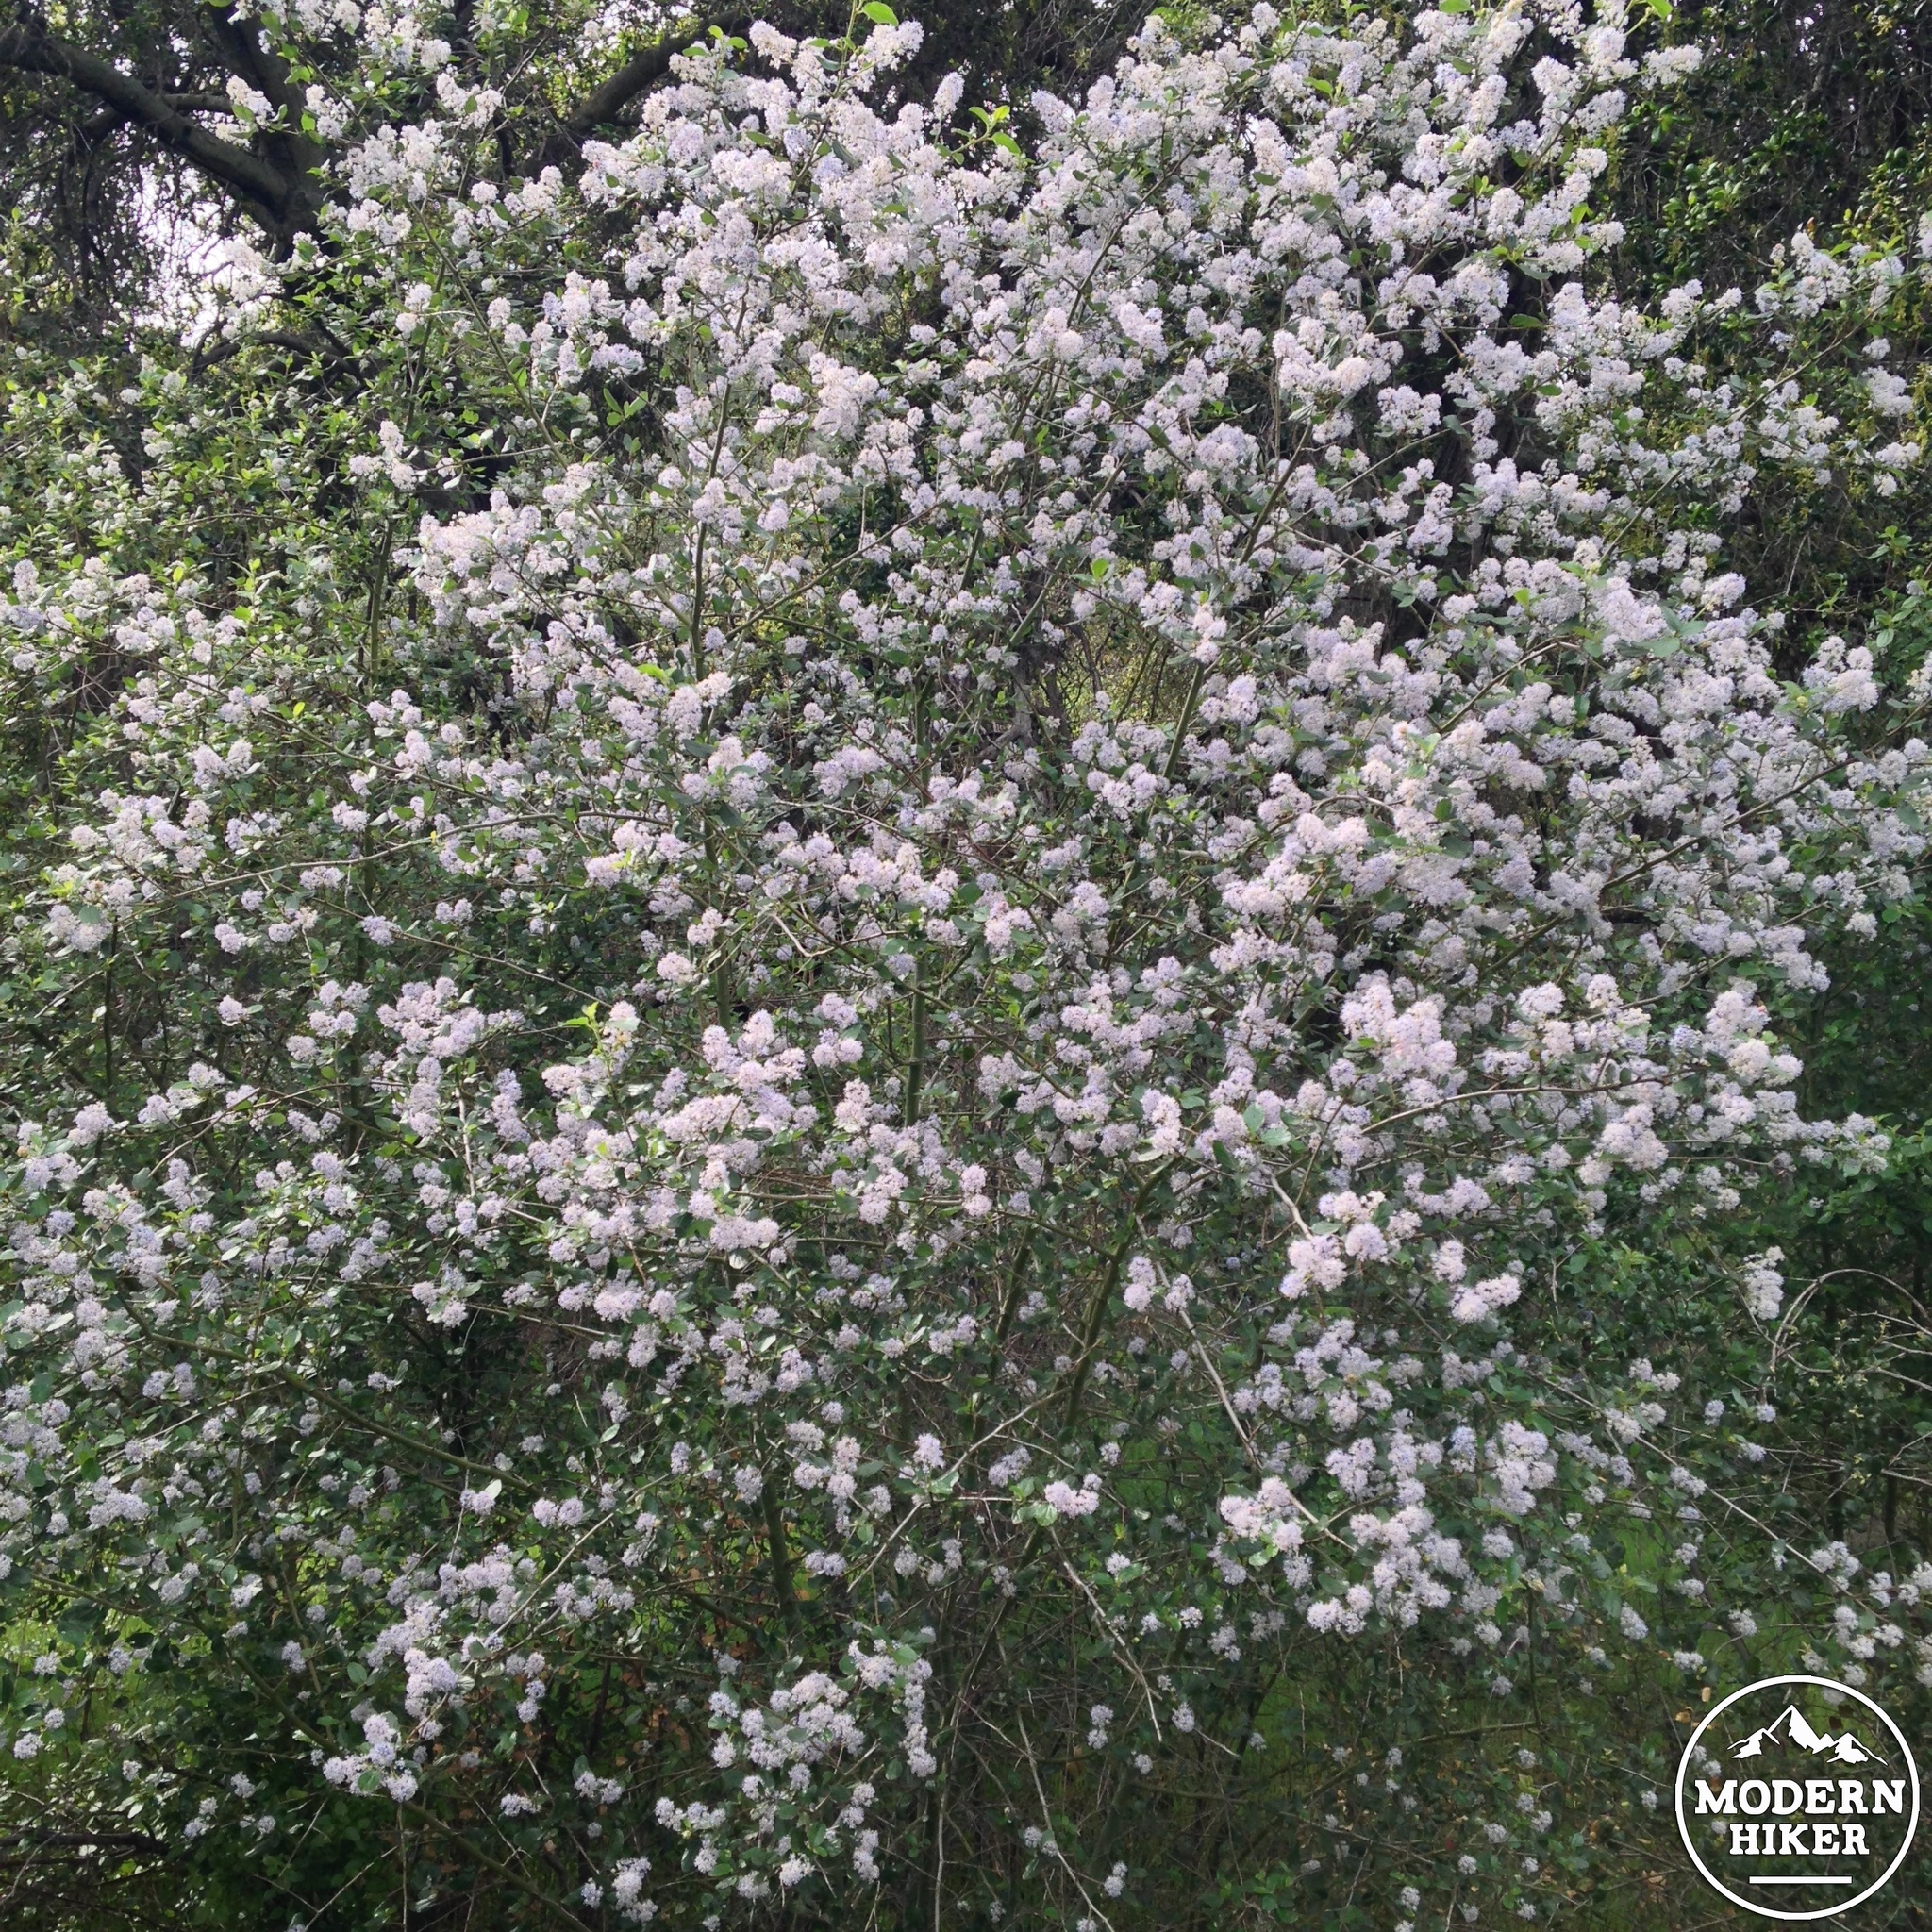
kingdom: Plantae
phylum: Tracheophyta
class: Magnoliopsida
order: Rosales
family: Rhamnaceae
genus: Ceanothus
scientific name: Ceanothus oliganthus
